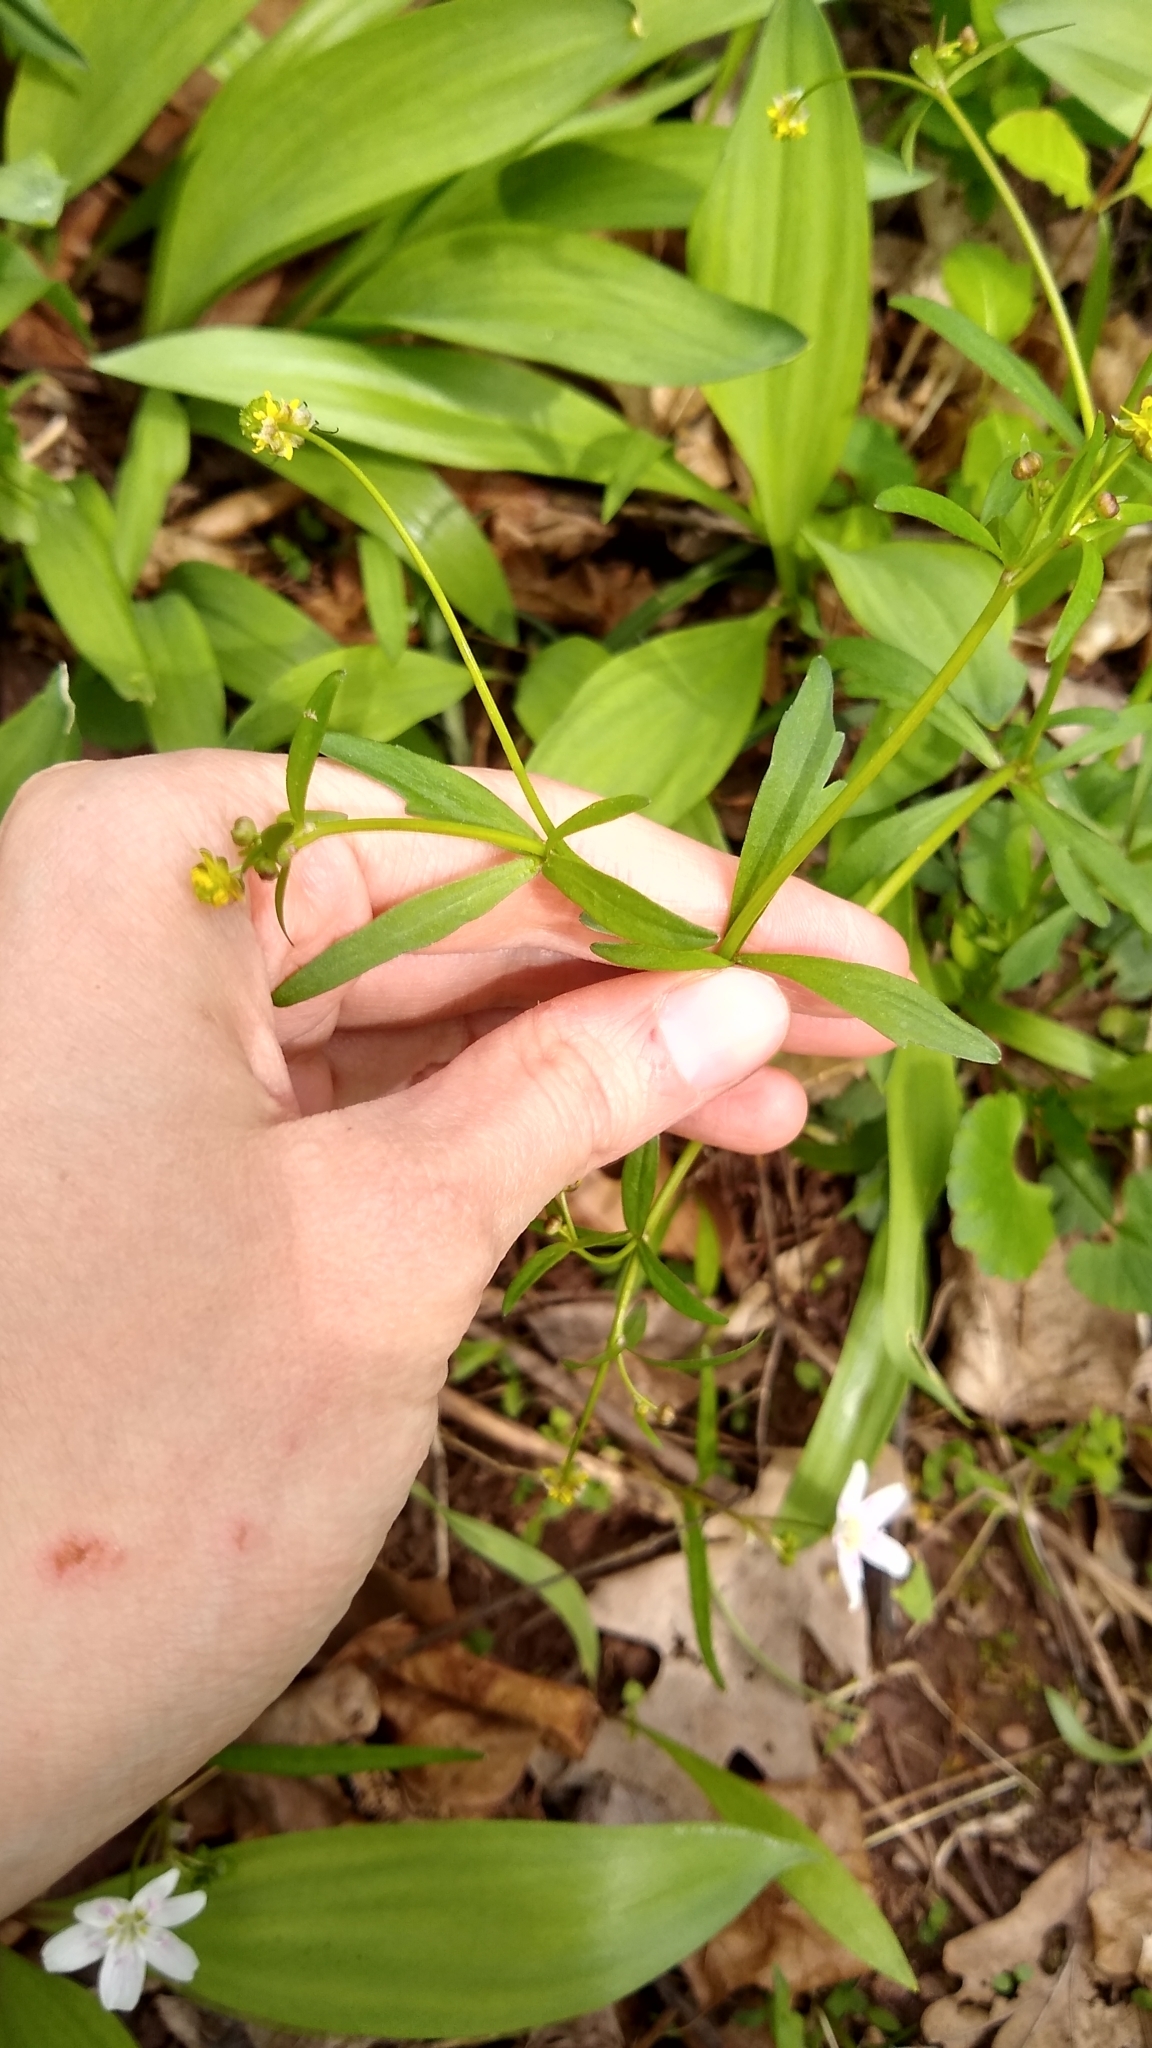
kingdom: Plantae
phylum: Tracheophyta
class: Magnoliopsida
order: Ranunculales
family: Ranunculaceae
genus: Ranunculus
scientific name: Ranunculus abortivus
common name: Early wood buttercup
